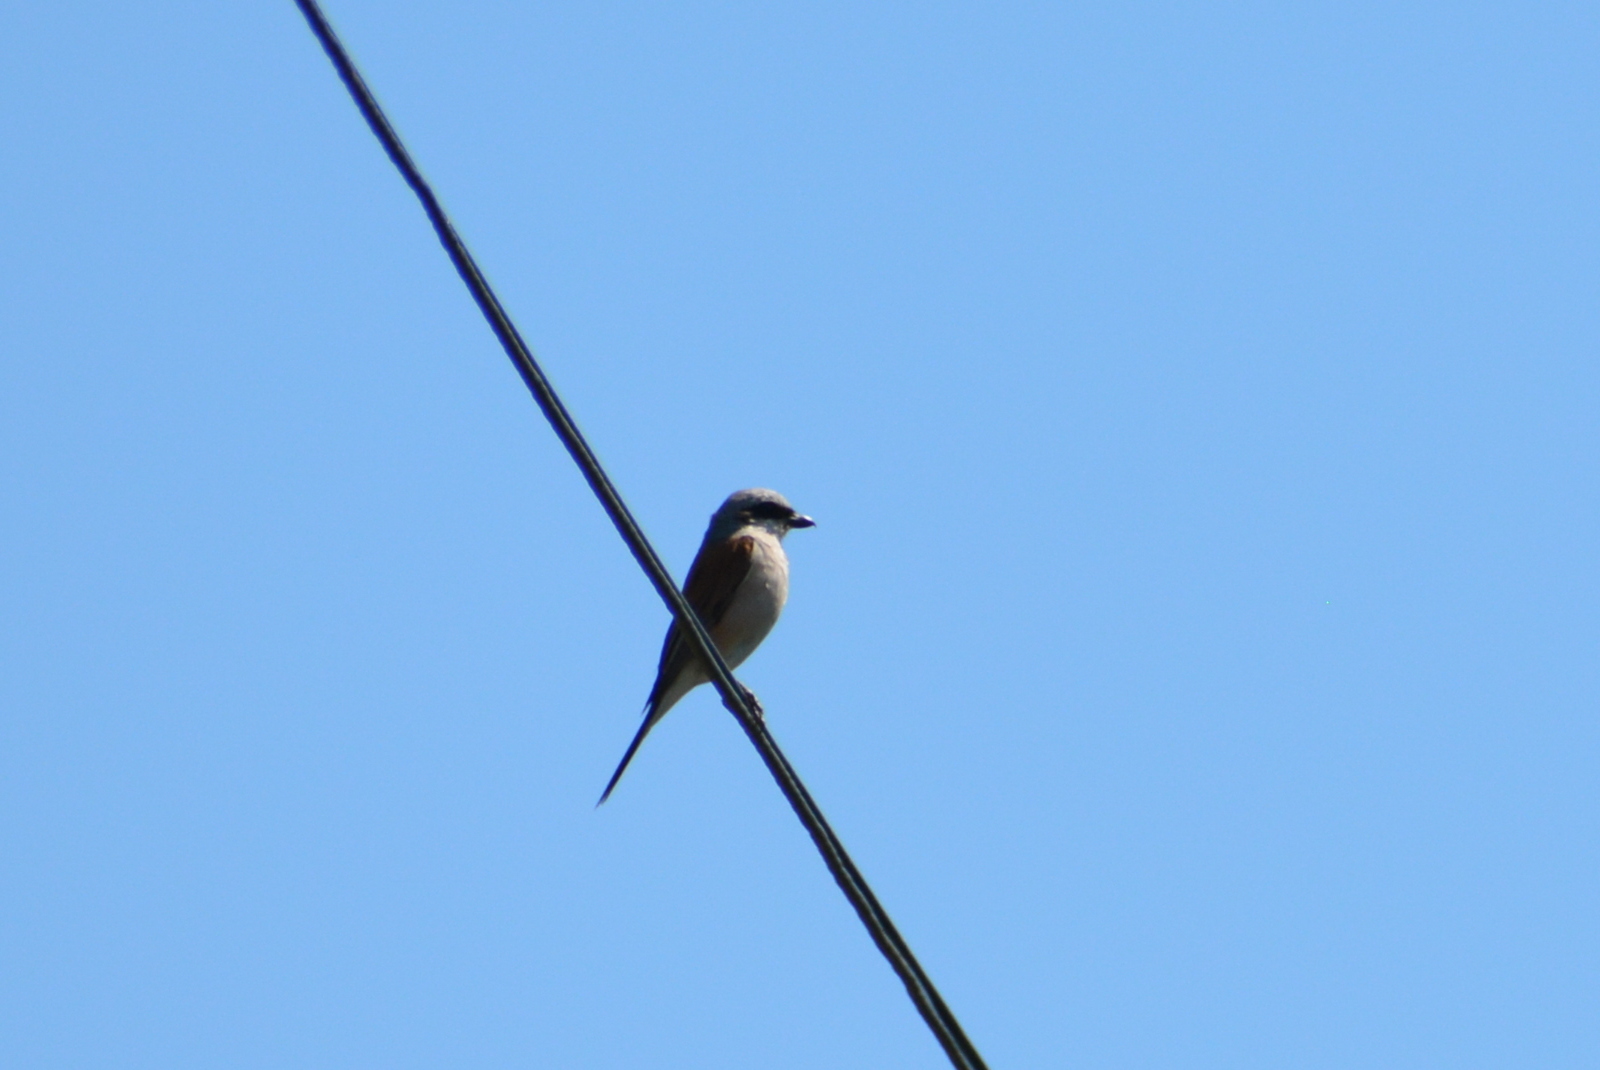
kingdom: Animalia
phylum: Chordata
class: Aves
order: Passeriformes
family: Laniidae
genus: Lanius
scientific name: Lanius collurio
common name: Red-backed shrike
